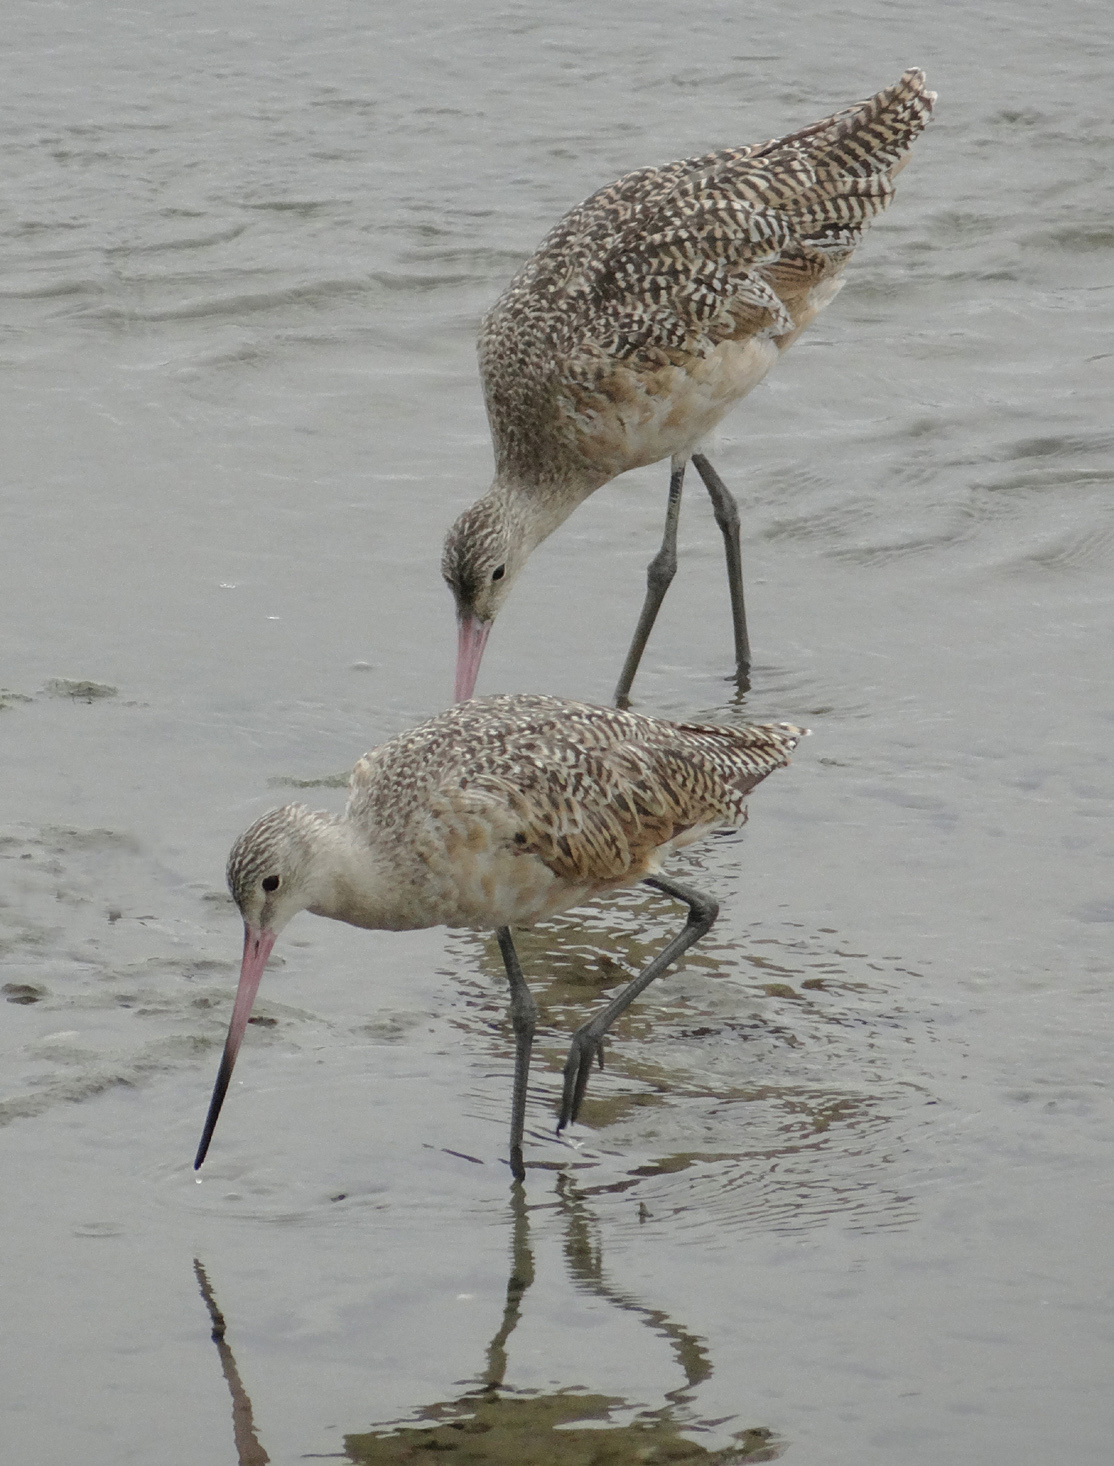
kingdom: Animalia
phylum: Chordata
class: Aves
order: Charadriiformes
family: Scolopacidae
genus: Limosa
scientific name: Limosa fedoa
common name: Marbled godwit
